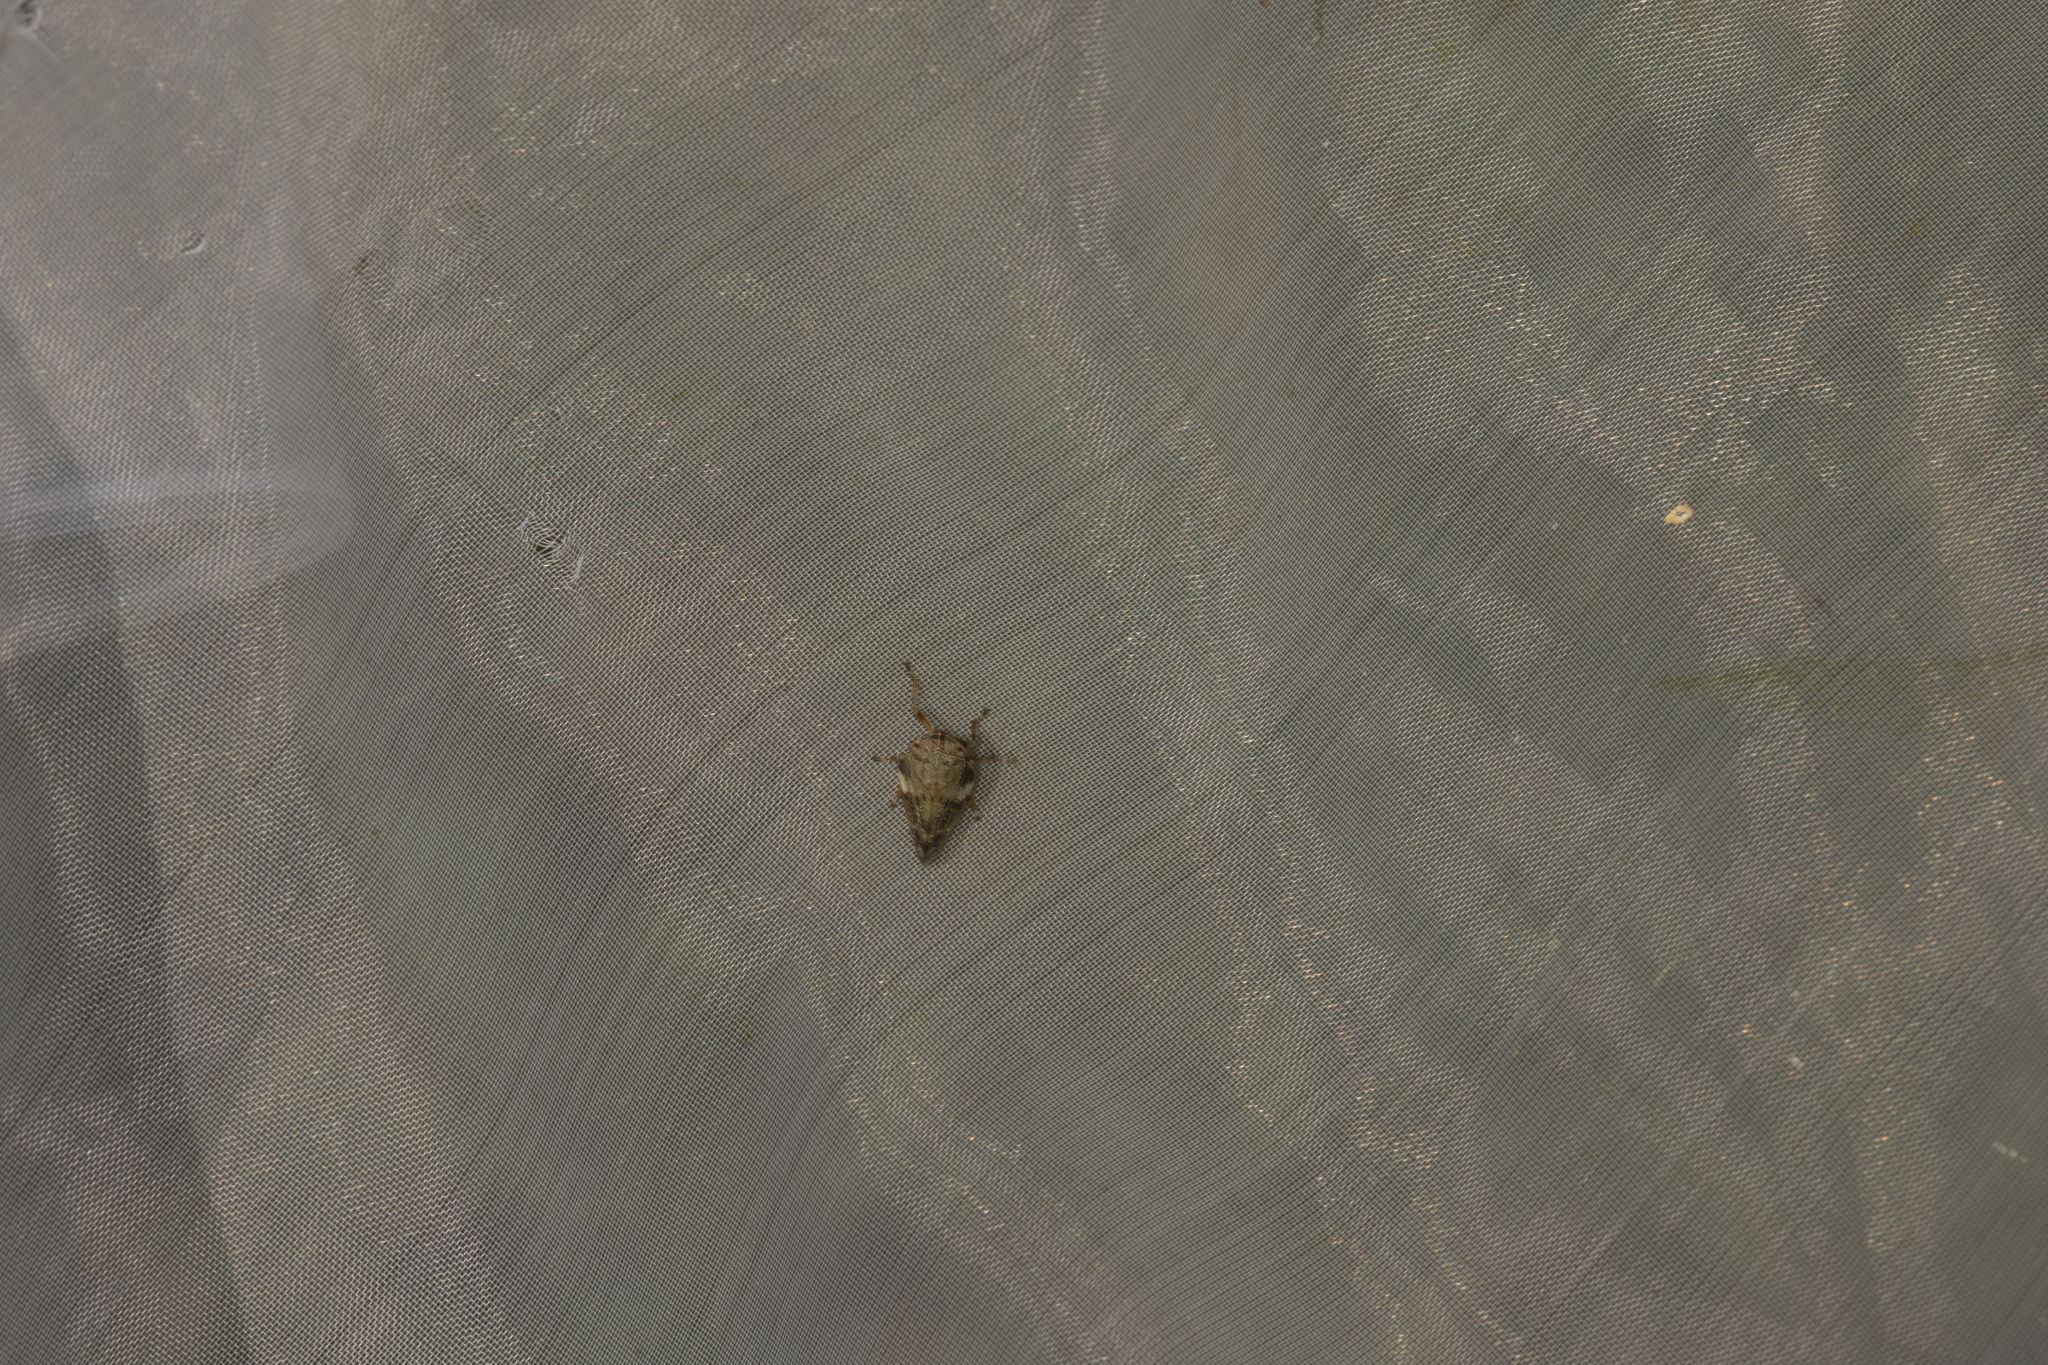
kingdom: Animalia
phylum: Arthropoda
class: Insecta
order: Hemiptera
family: Aphrophoridae
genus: Aphrophora
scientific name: Aphrophora alni
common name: European alder spittlebug
